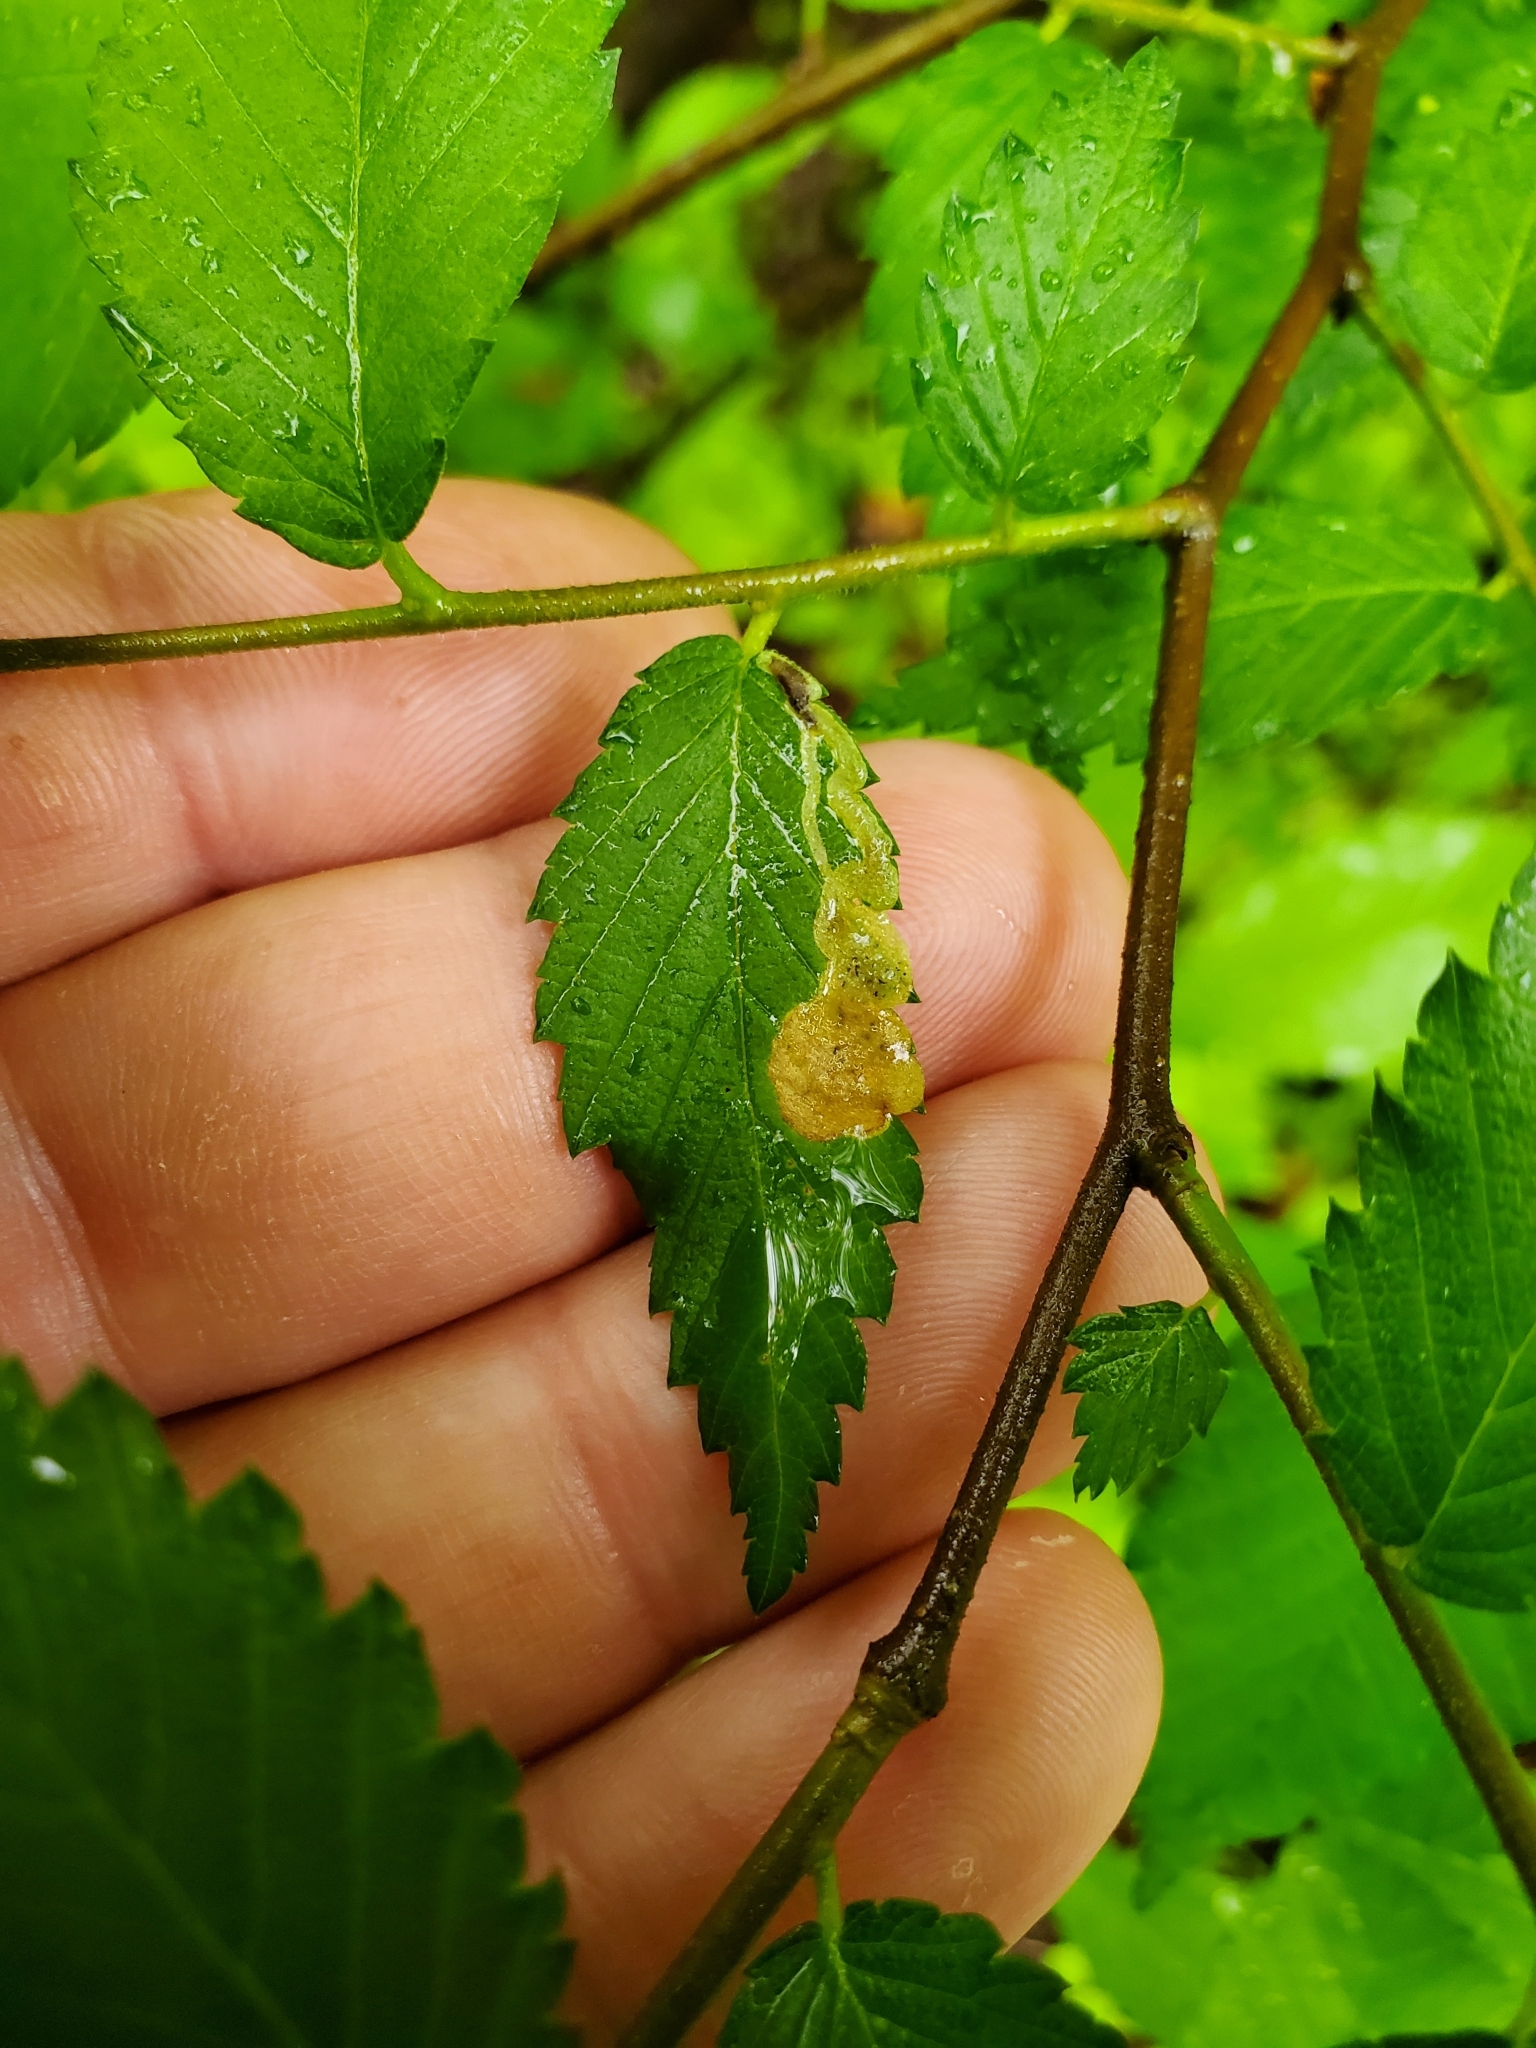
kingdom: Animalia
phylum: Arthropoda
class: Insecta
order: Diptera
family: Agromyzidae
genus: Agromyza
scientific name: Agromyza aristata
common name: Elm agromyzid leafminer
